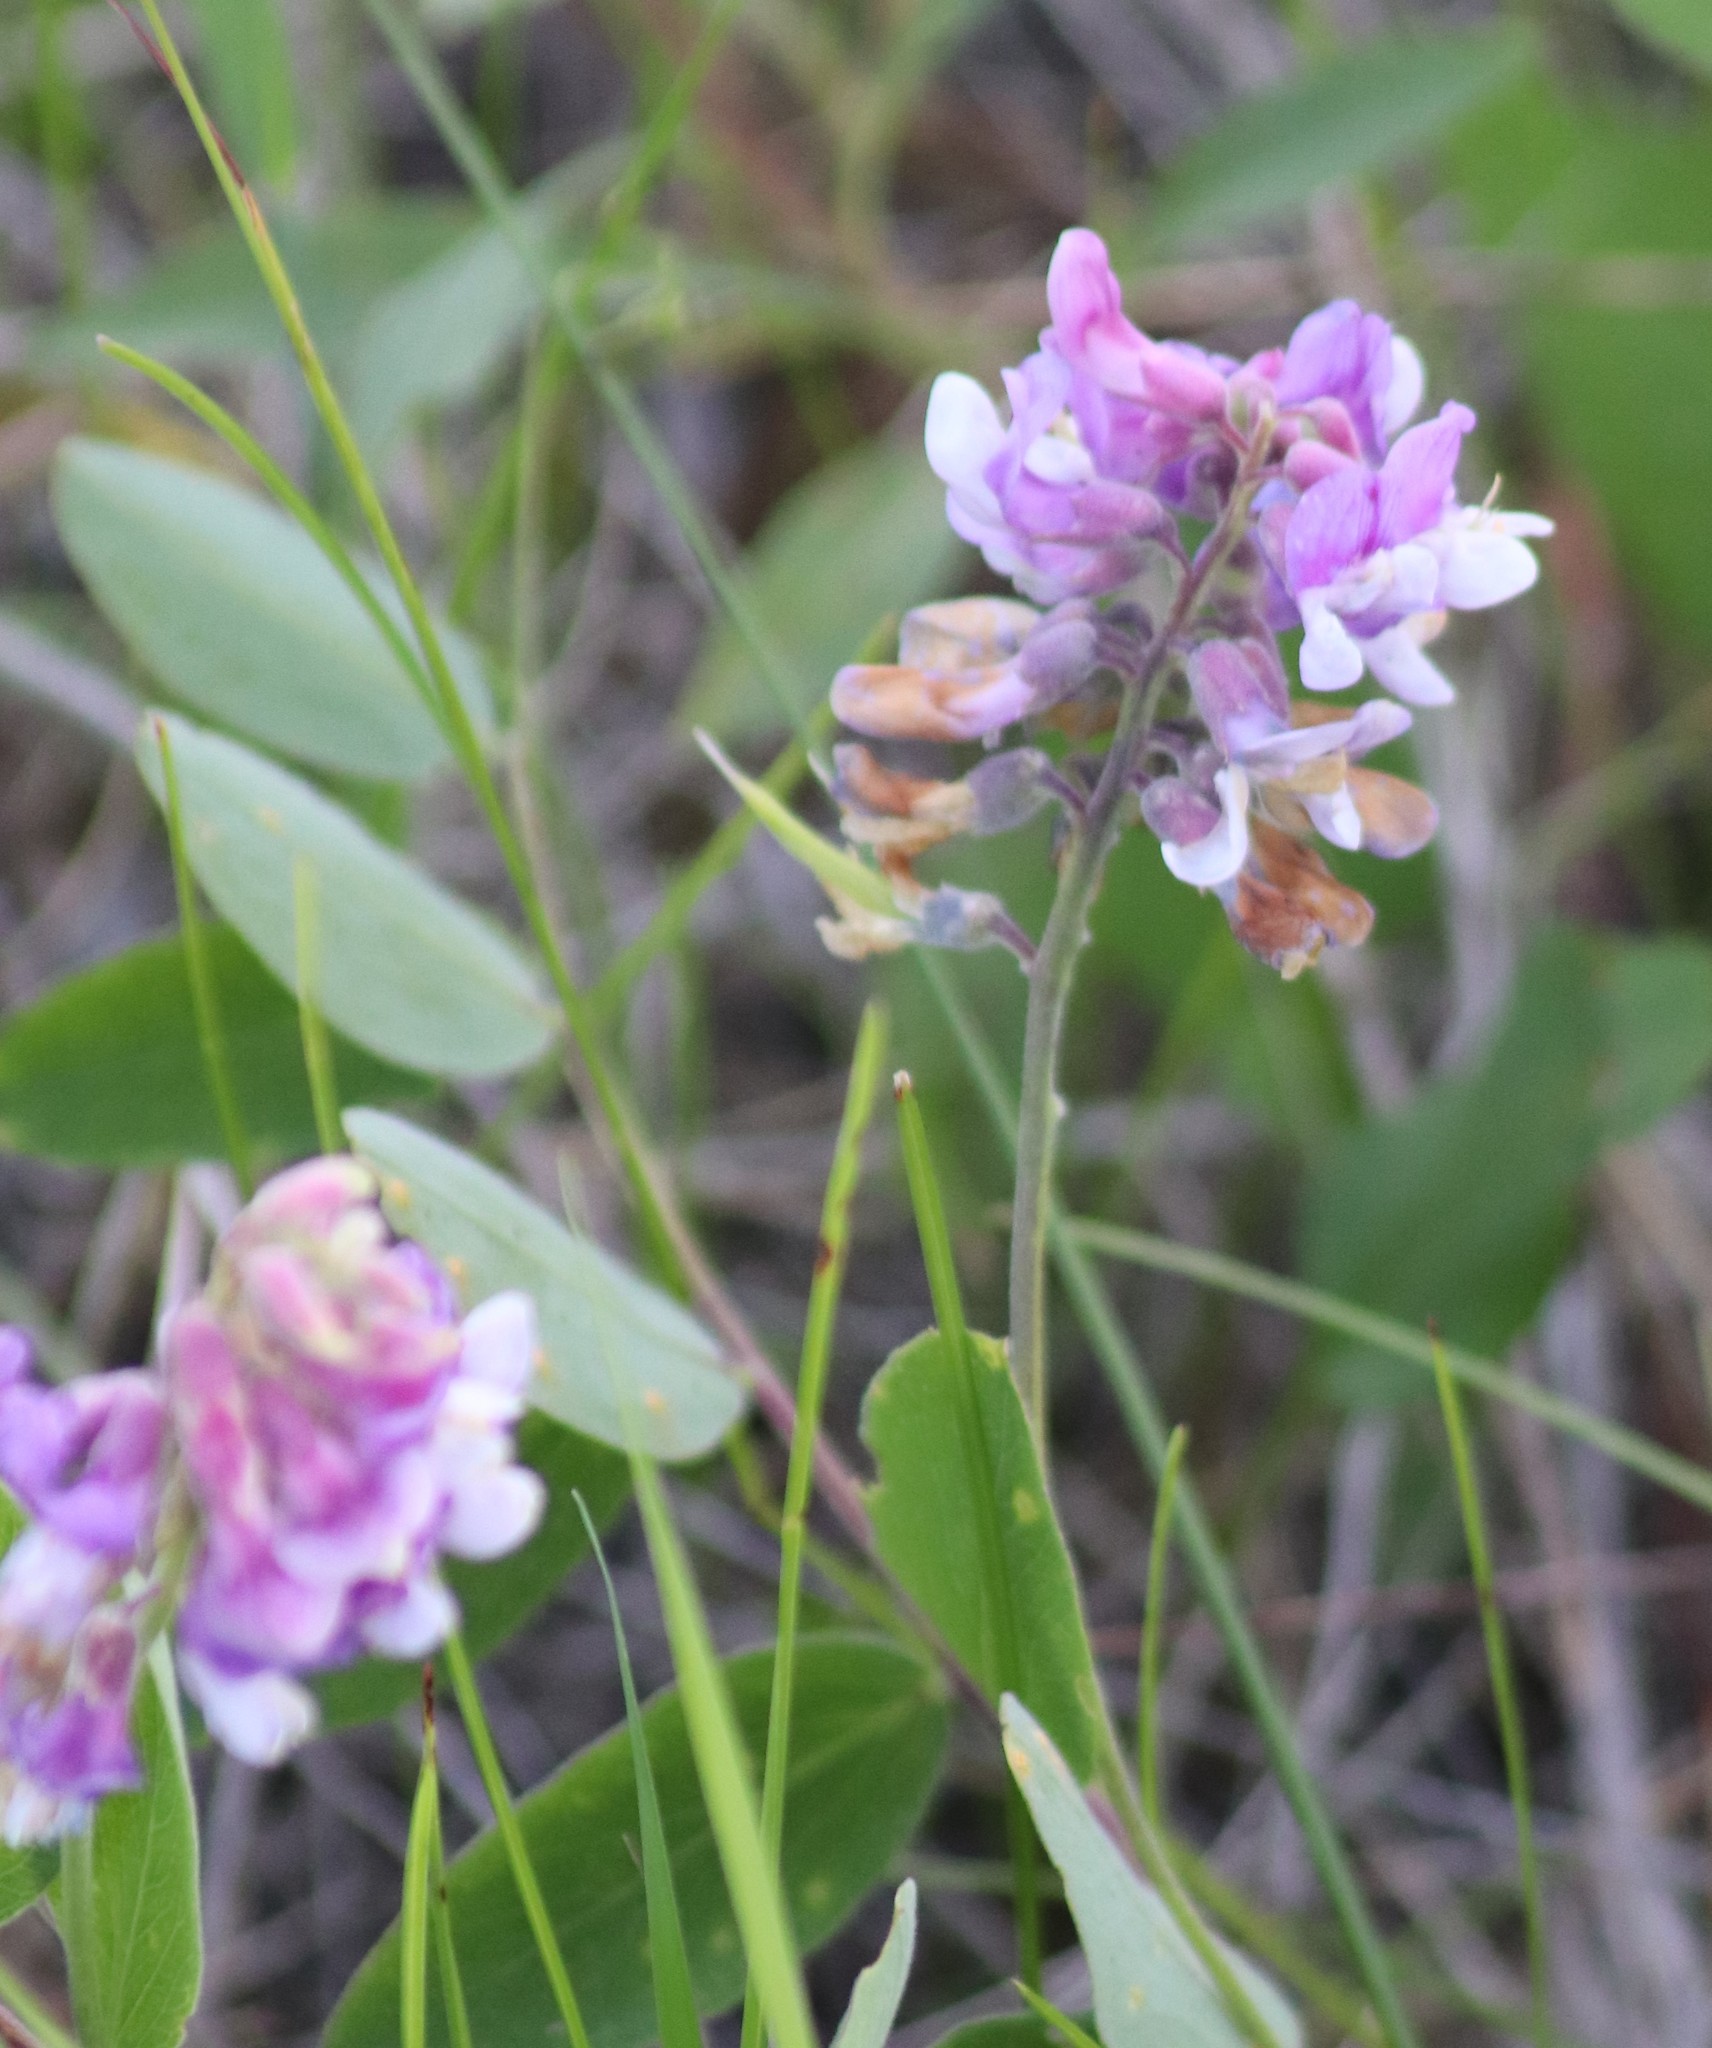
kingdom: Plantae
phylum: Tracheophyta
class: Magnoliopsida
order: Fabales
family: Fabaceae
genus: Lathyrus
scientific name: Lathyrus venosus
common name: Forest-pea
